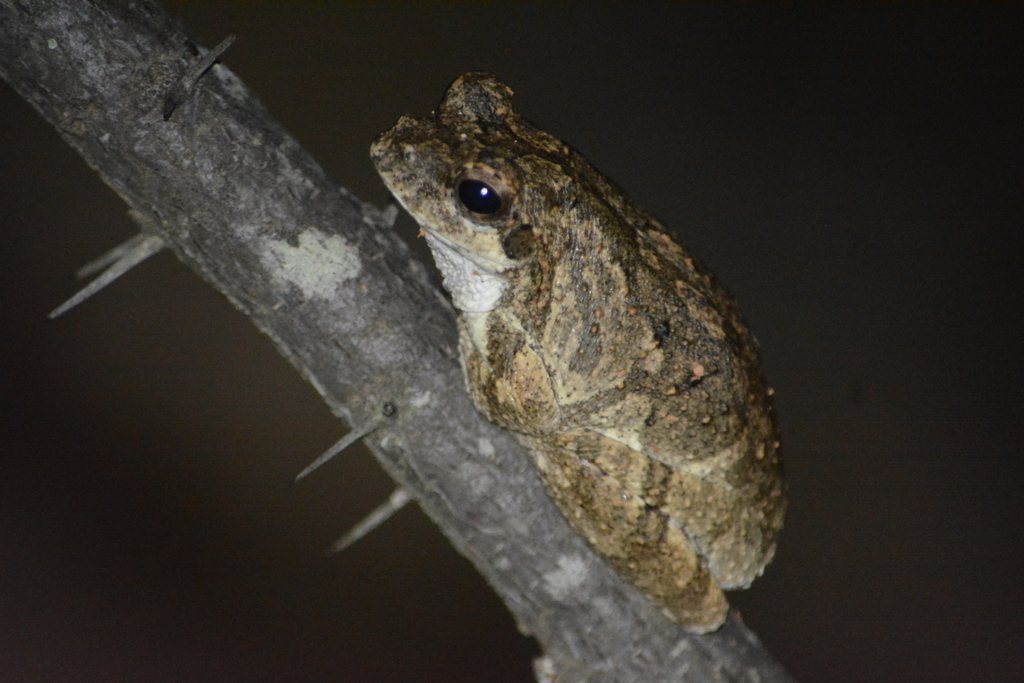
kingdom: Animalia
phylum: Chordata
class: Amphibia
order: Anura
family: Rhacophoridae
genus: Chiromantis
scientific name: Chiromantis xerampelina
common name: African gray treefrog
